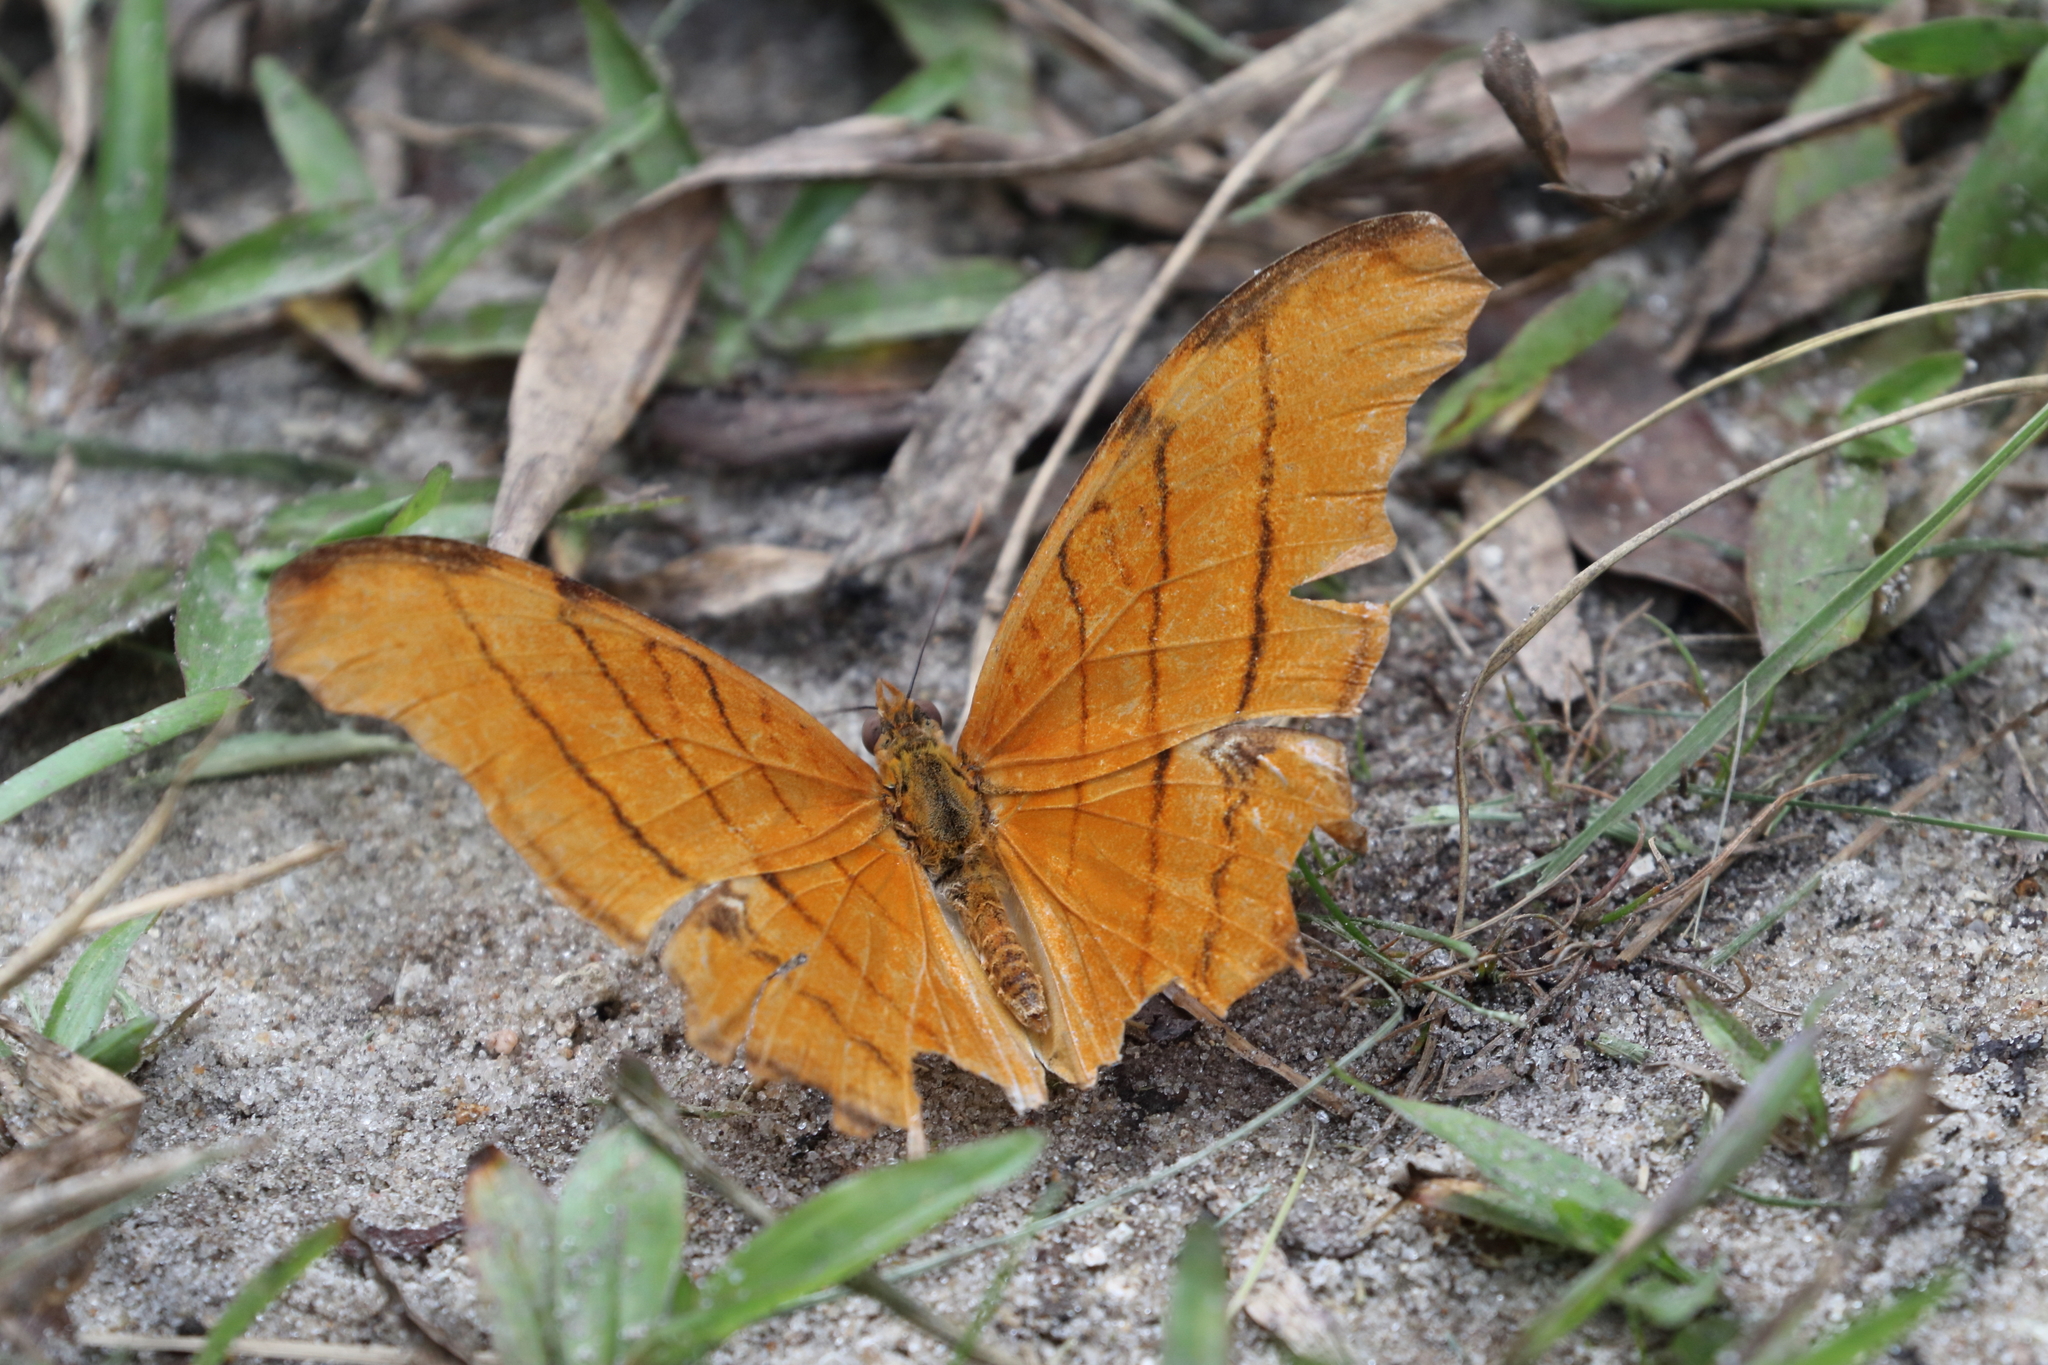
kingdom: Animalia
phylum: Arthropoda
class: Insecta
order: Lepidoptera
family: Nymphalidae
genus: Marpesia
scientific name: Marpesia petreus
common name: Red dagger wing
